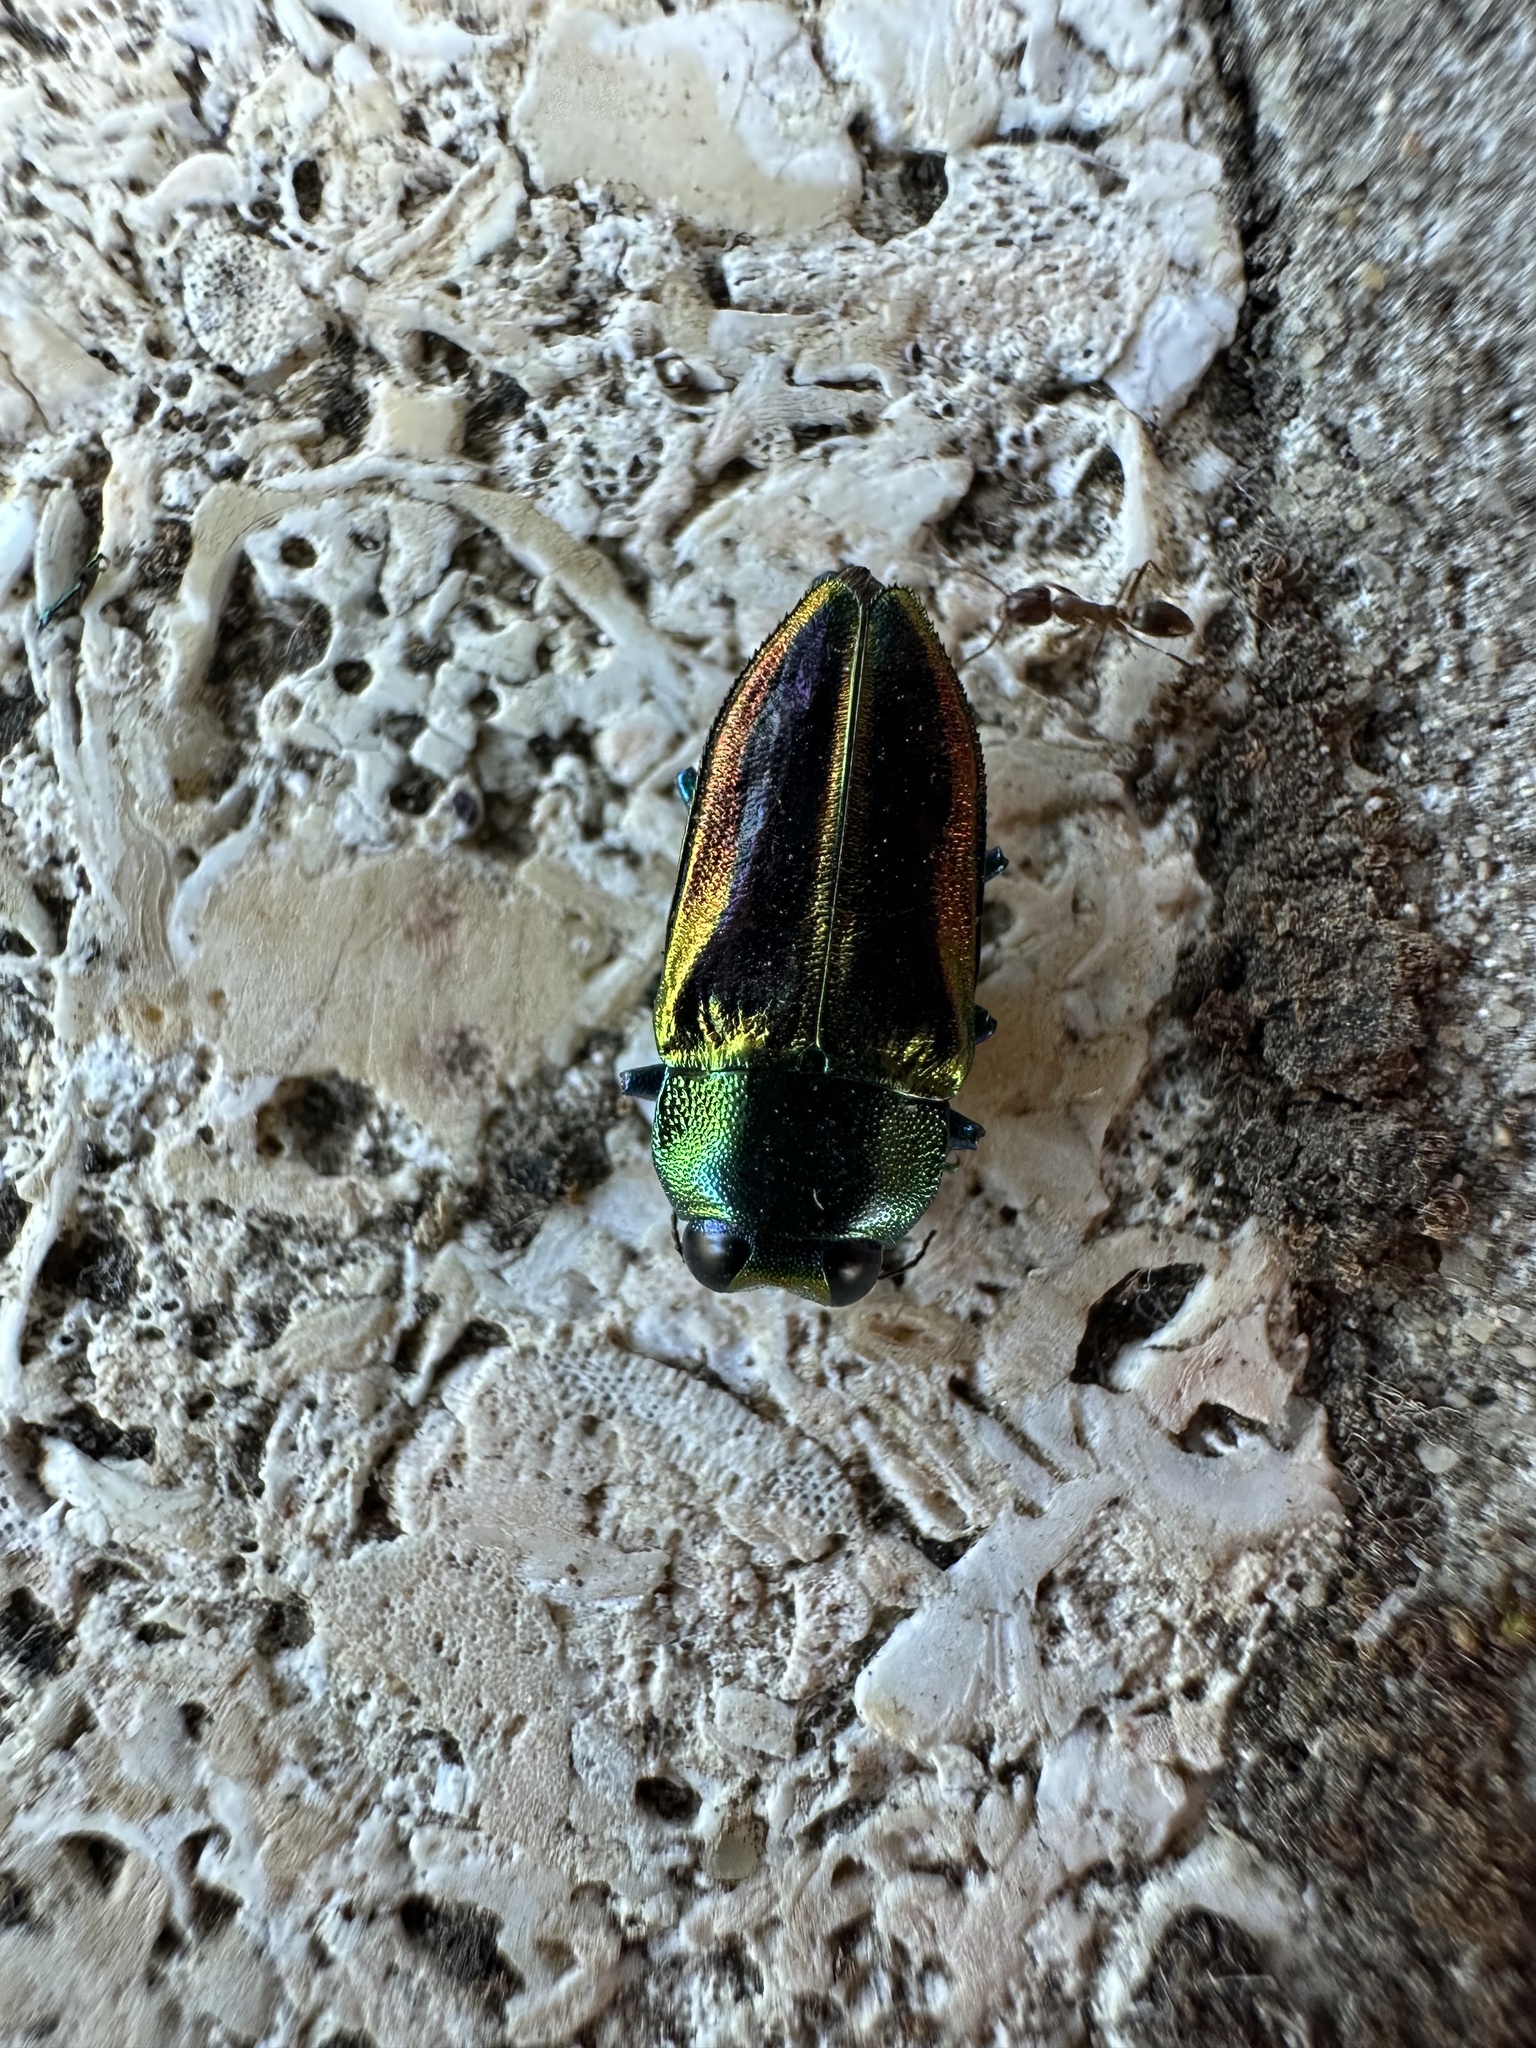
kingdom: Animalia
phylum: Arthropoda
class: Insecta
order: Coleoptera
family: Buprestidae
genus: Cylindrophora
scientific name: Cylindrophora
